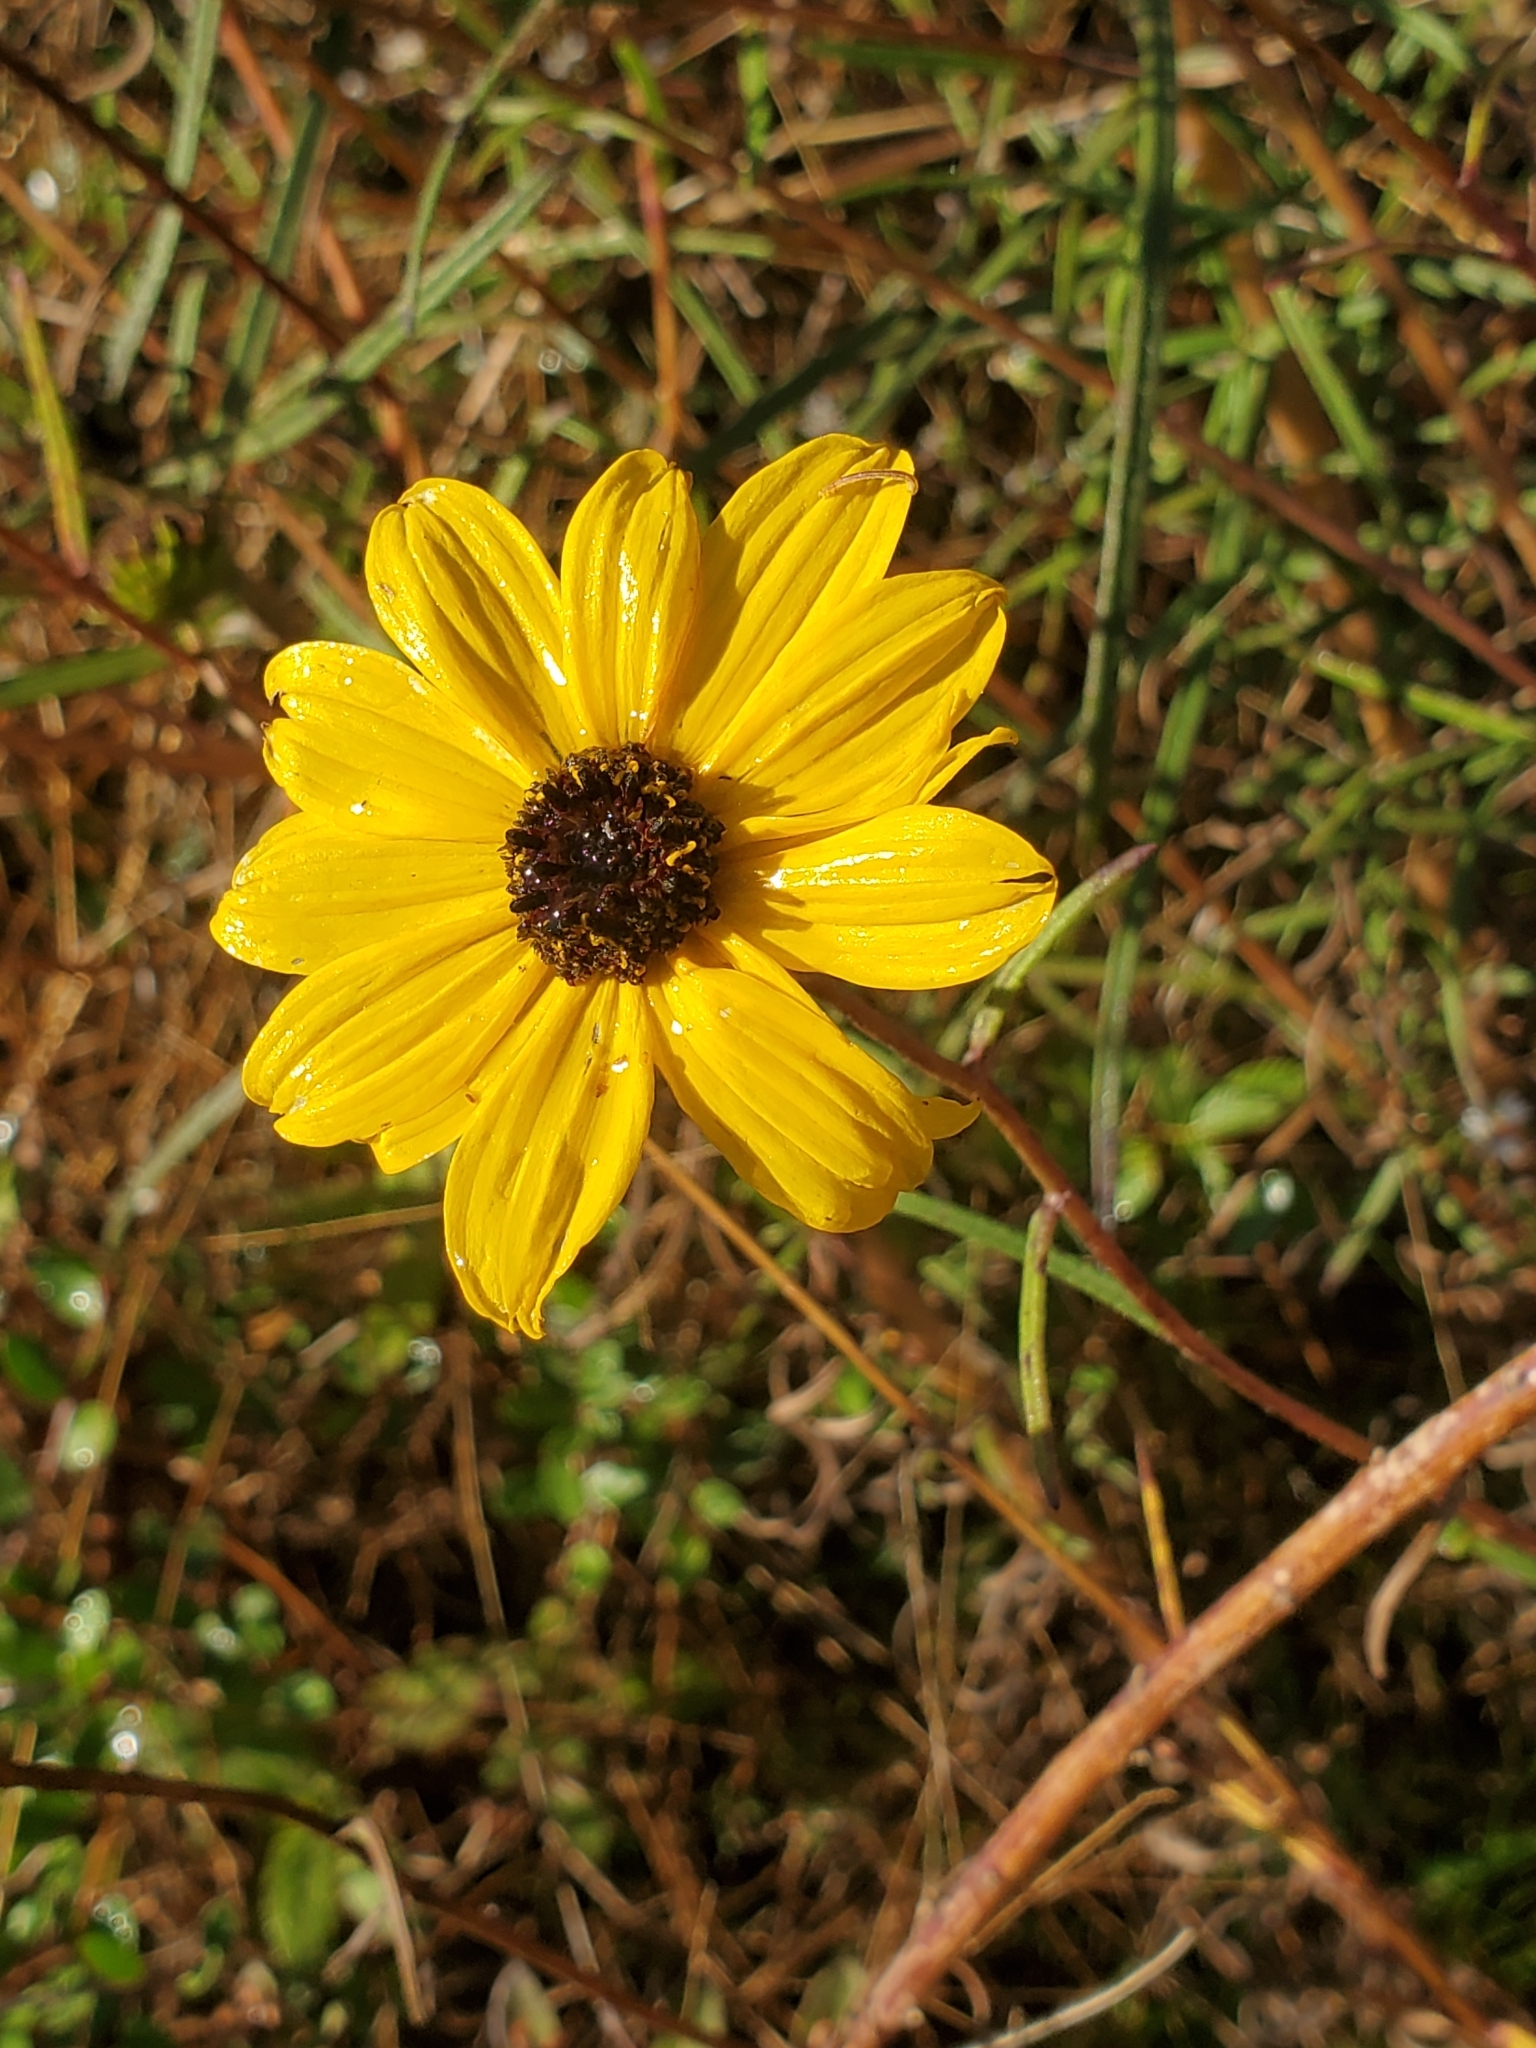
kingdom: Plantae
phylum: Tracheophyta
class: Magnoliopsida
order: Asterales
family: Asteraceae
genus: Helianthus
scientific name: Helianthus angustifolius
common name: Swamp sunflower
